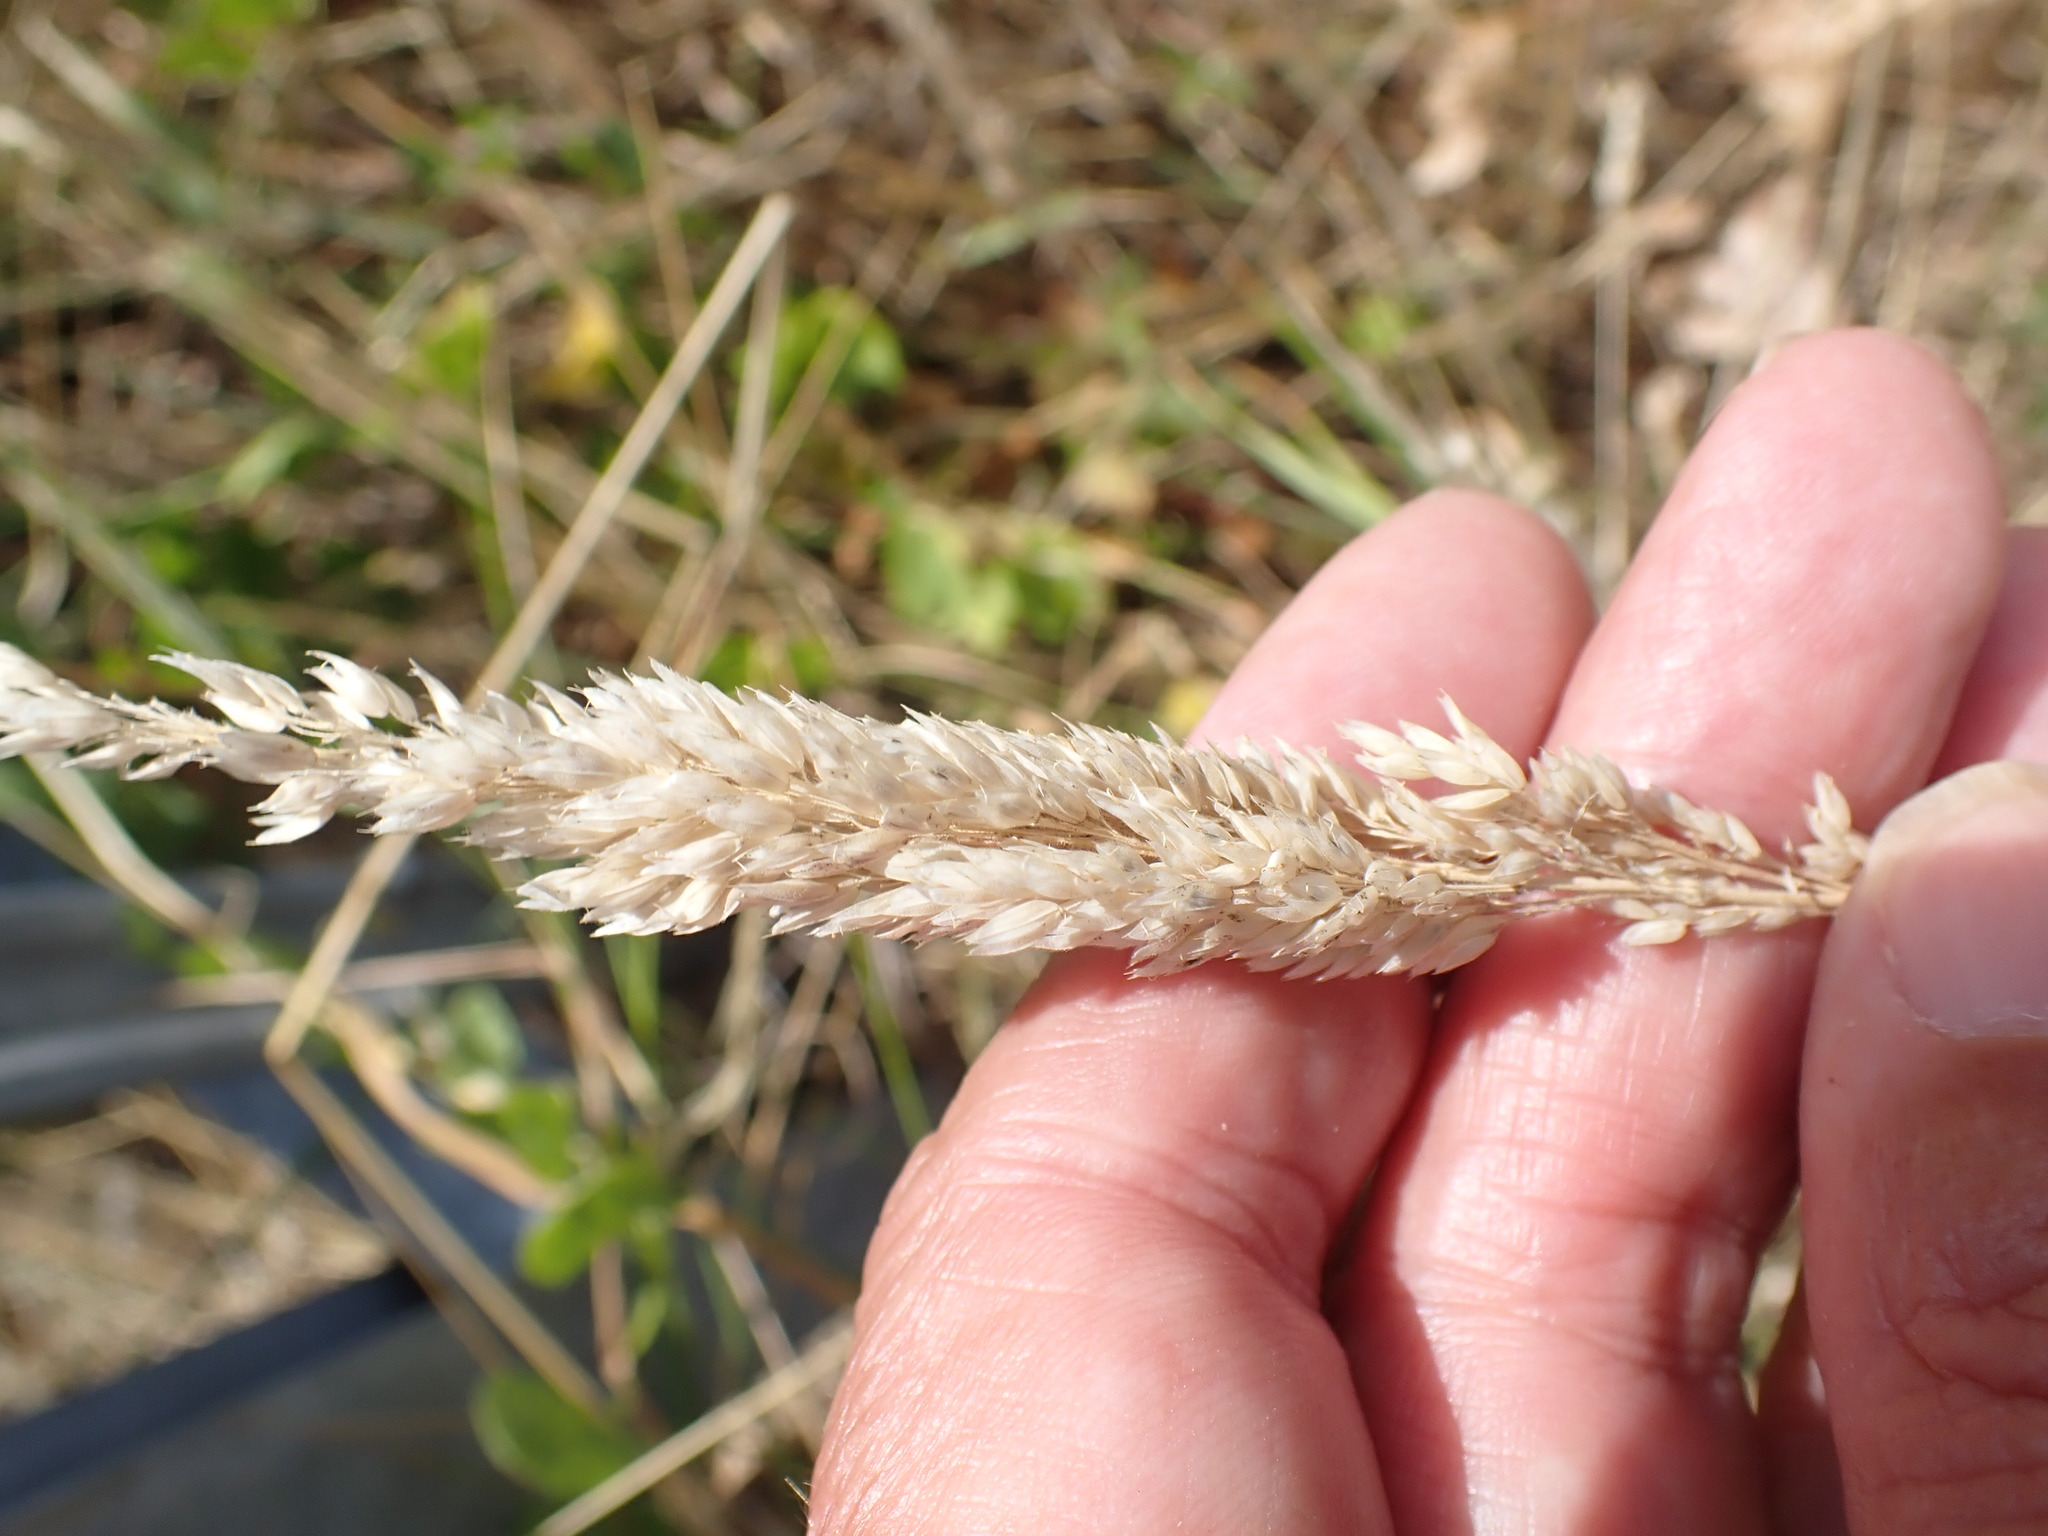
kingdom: Plantae
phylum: Tracheophyta
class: Liliopsida
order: Poales
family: Poaceae
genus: Holcus
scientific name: Holcus lanatus
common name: Yorkshire-fog
